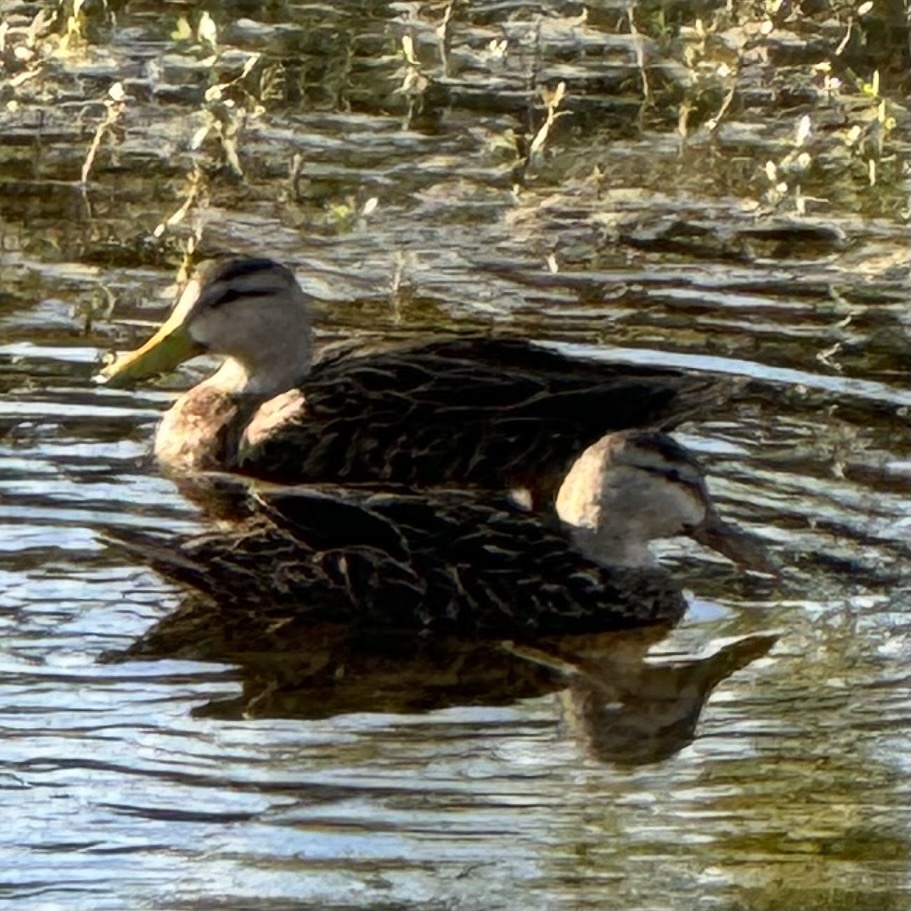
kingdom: Animalia
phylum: Chordata
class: Aves
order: Anseriformes
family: Anatidae
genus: Anas
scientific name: Anas fulvigula
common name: Mottled duck
